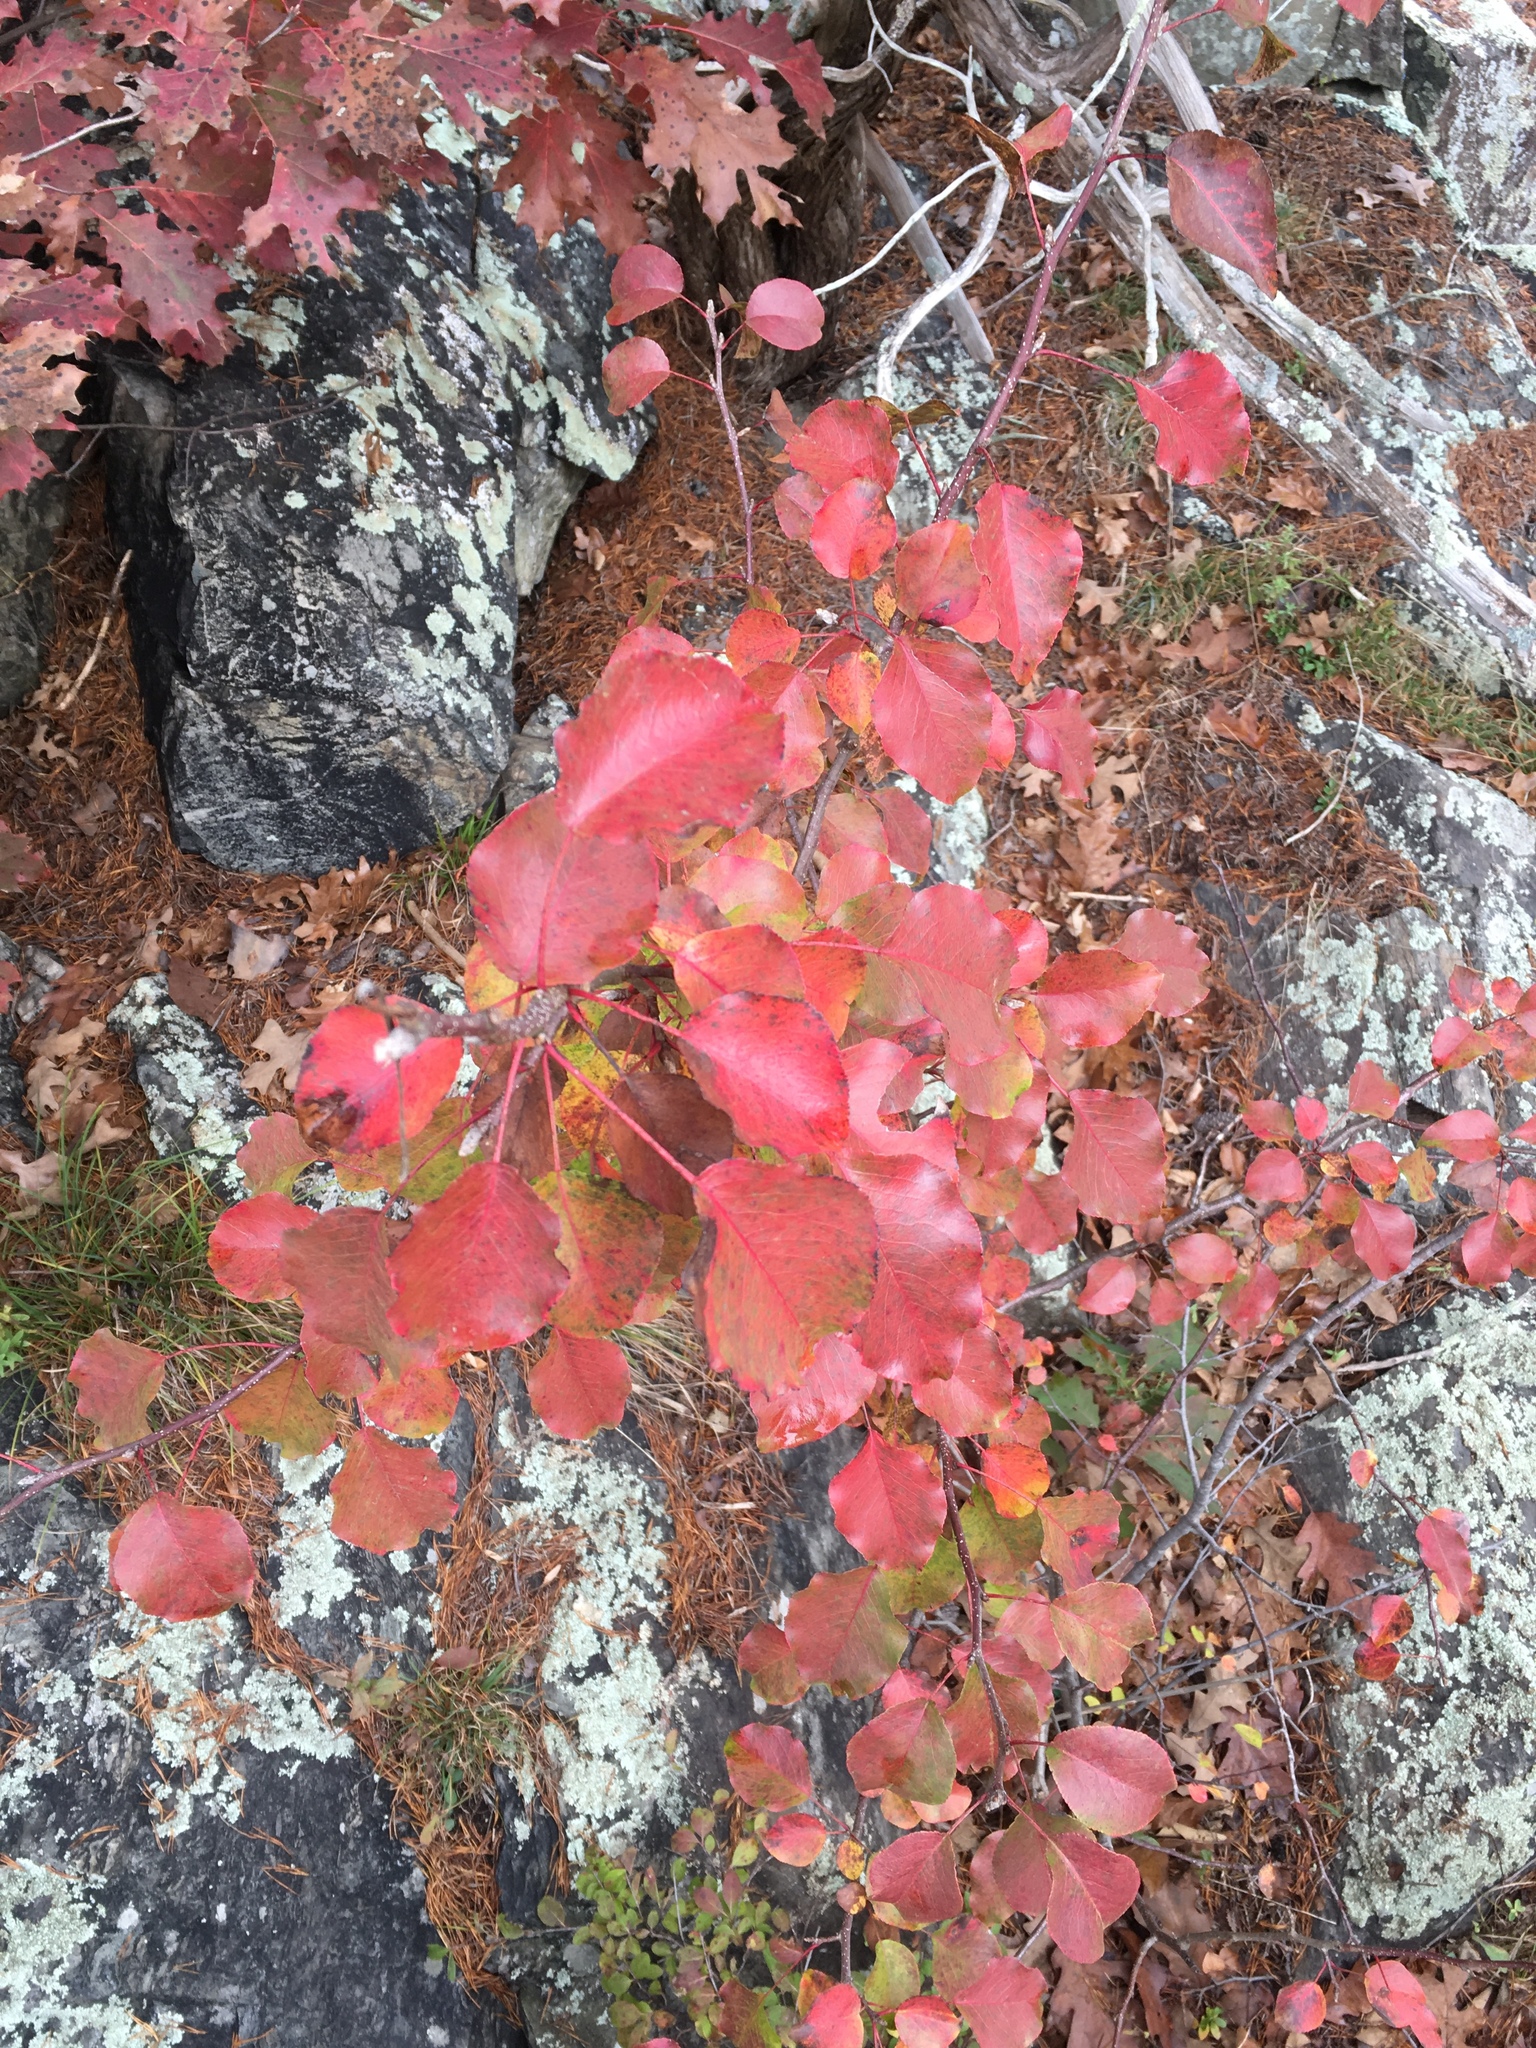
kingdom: Plantae
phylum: Tracheophyta
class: Magnoliopsida
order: Rosales
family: Rosaceae
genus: Pyrus
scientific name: Pyrus calleryana
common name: Callery pear
